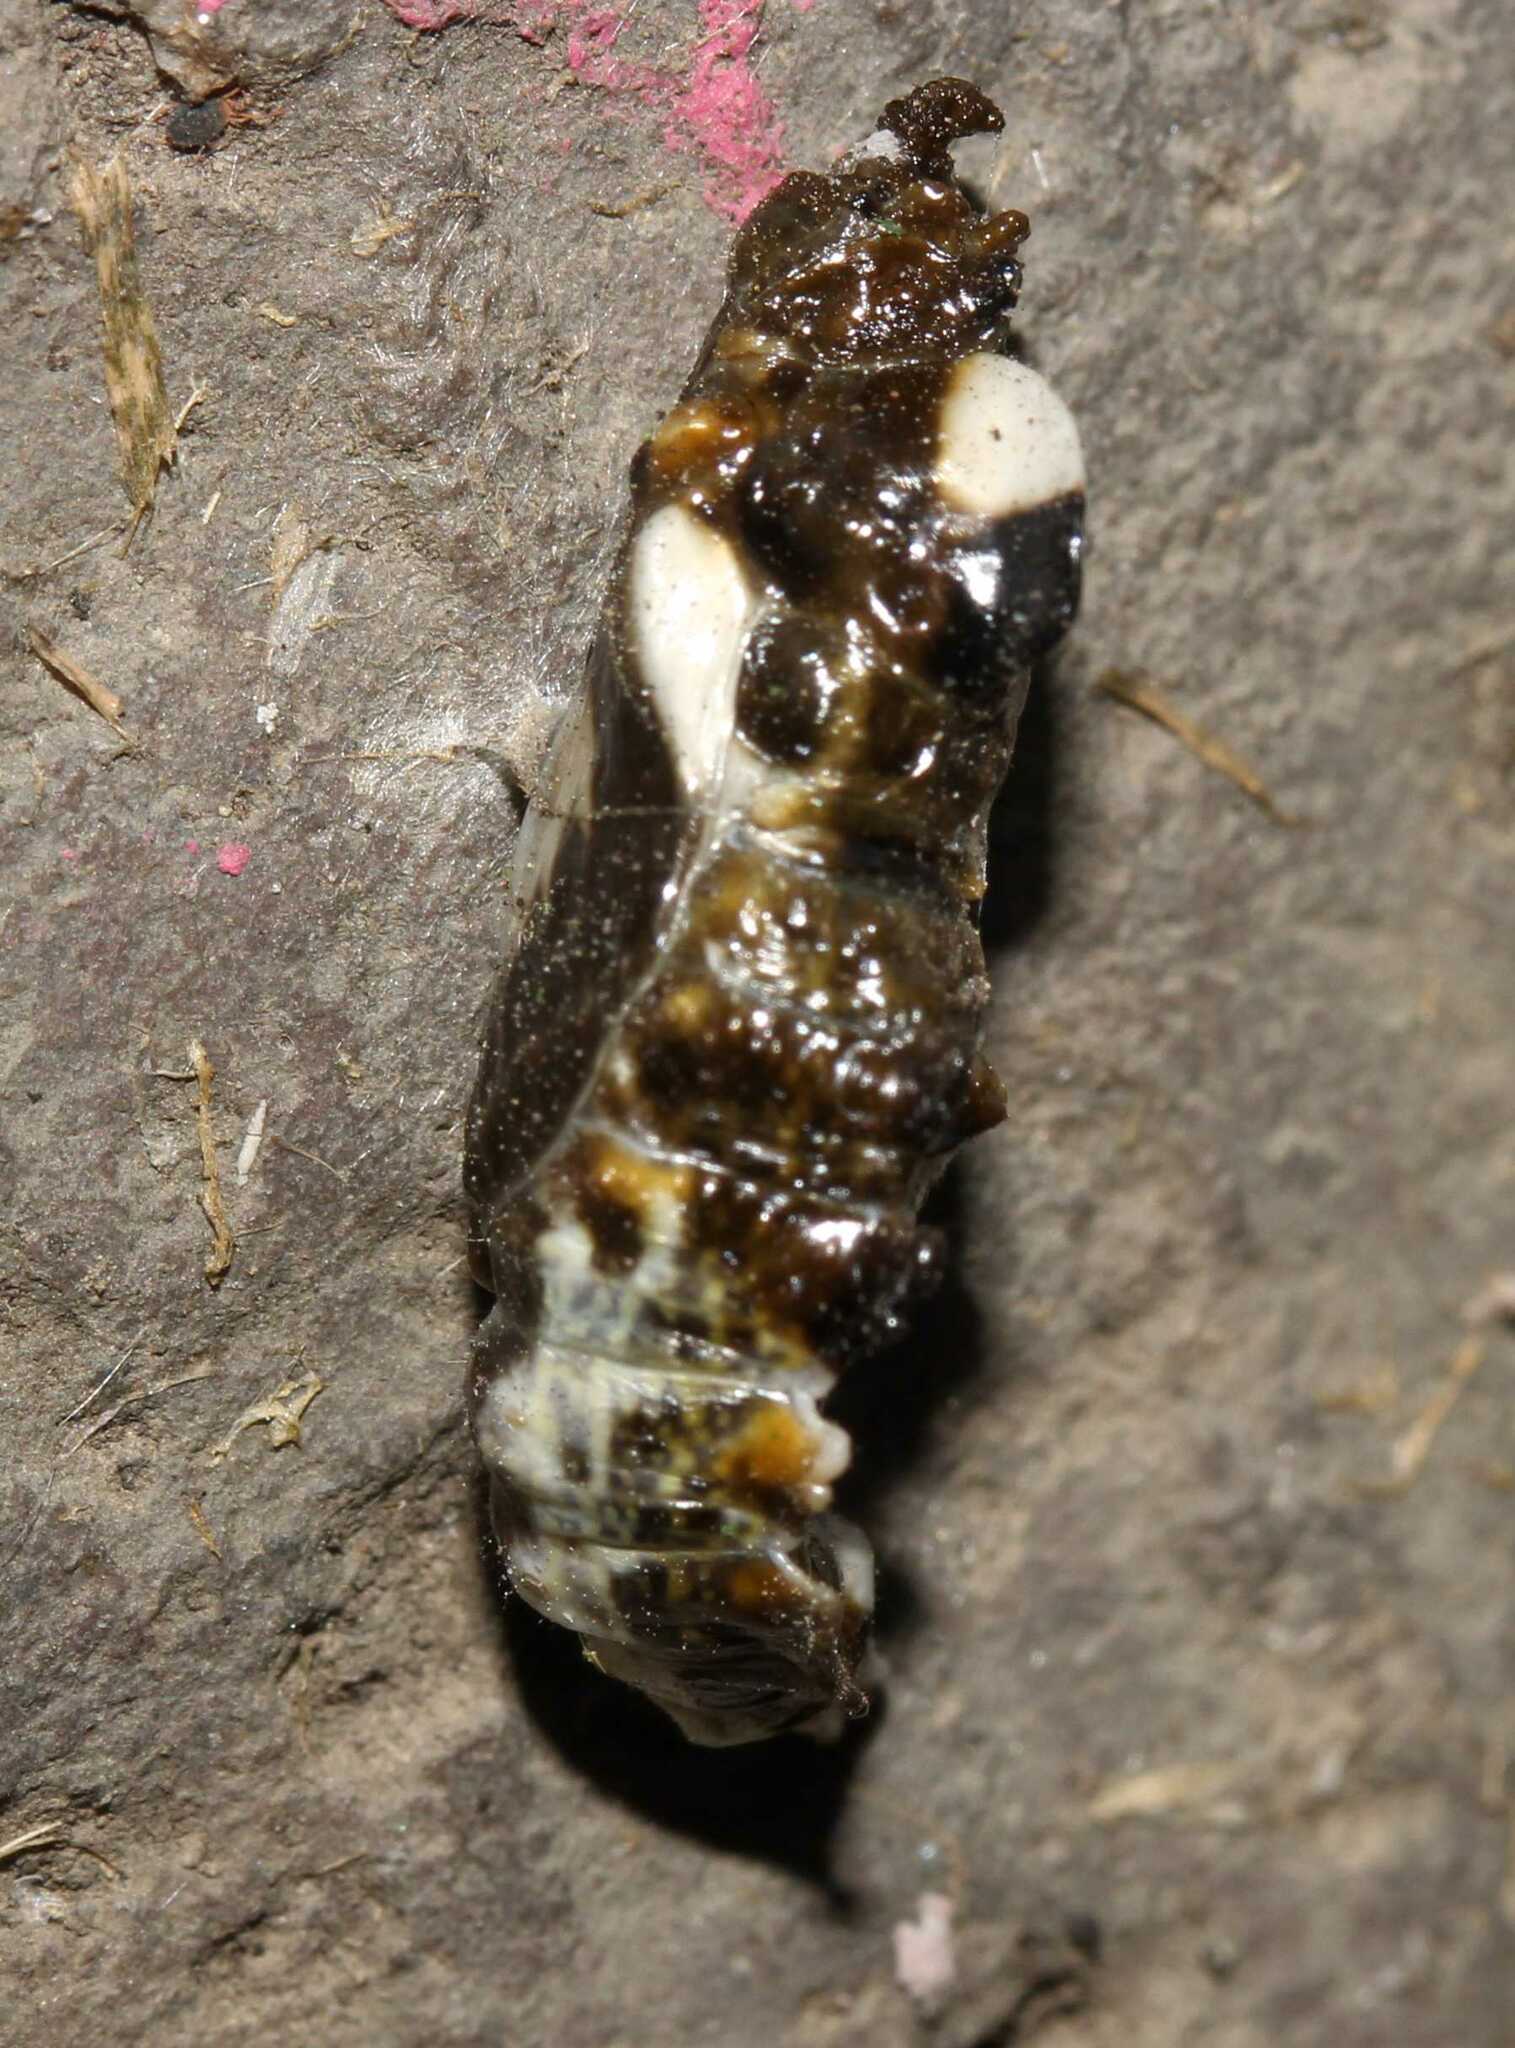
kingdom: Animalia
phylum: Arthropoda
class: Insecta
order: Lepidoptera
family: Pieridae
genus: Archonias
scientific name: Archonias teutila
